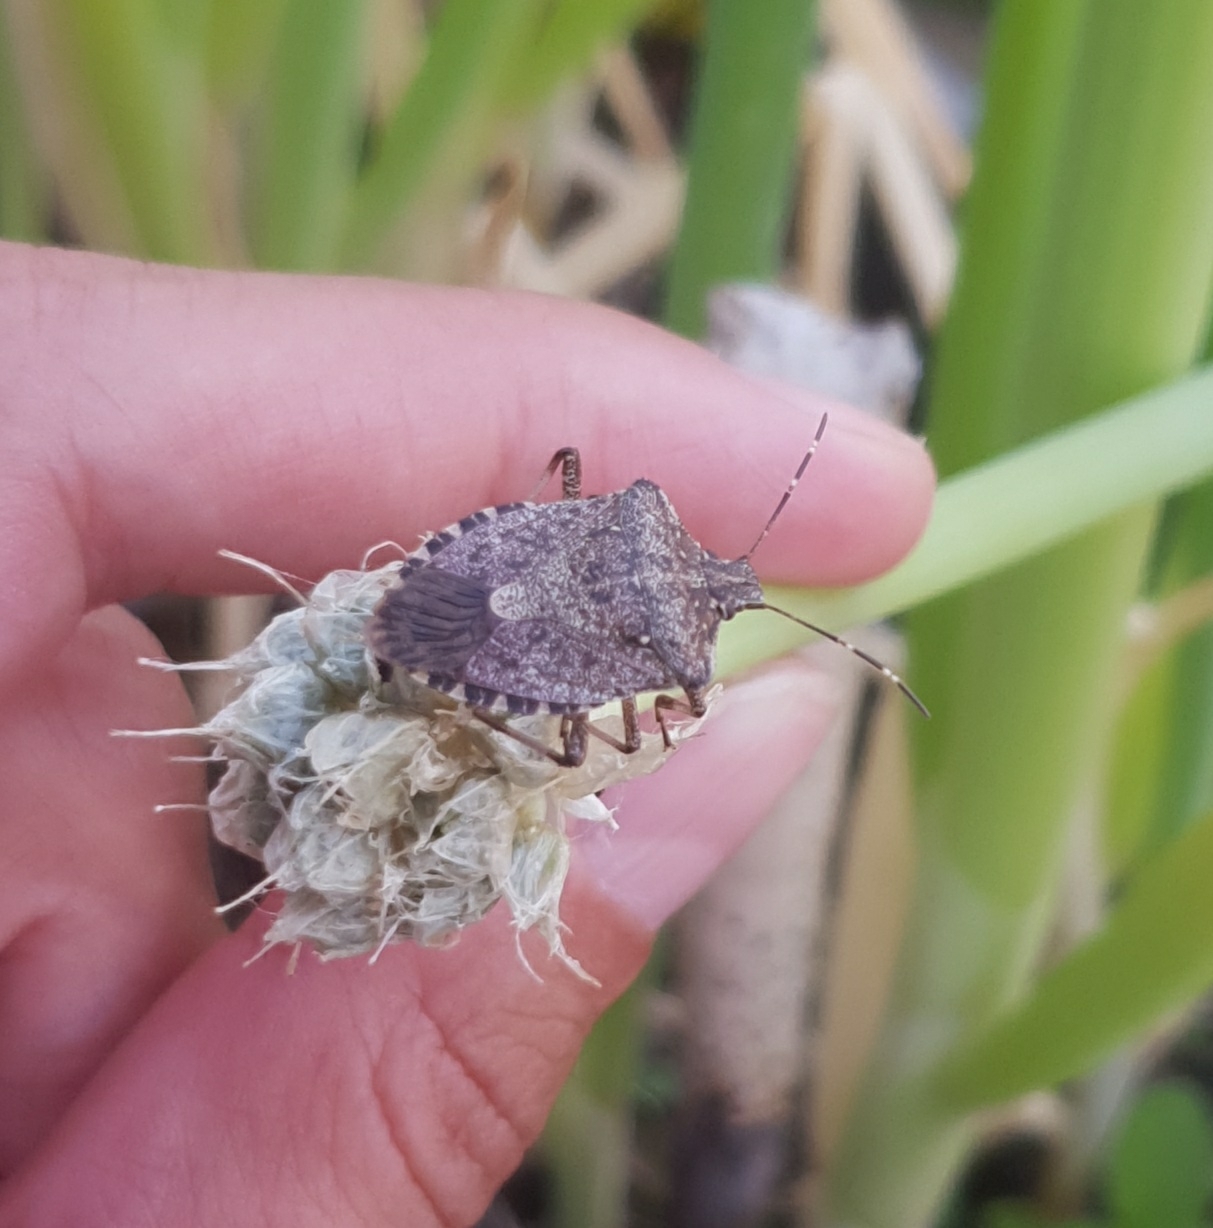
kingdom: Animalia
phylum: Arthropoda
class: Insecta
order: Hemiptera
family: Pentatomidae
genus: Halyomorpha
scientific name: Halyomorpha halys
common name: Brown marmorated stink bug
